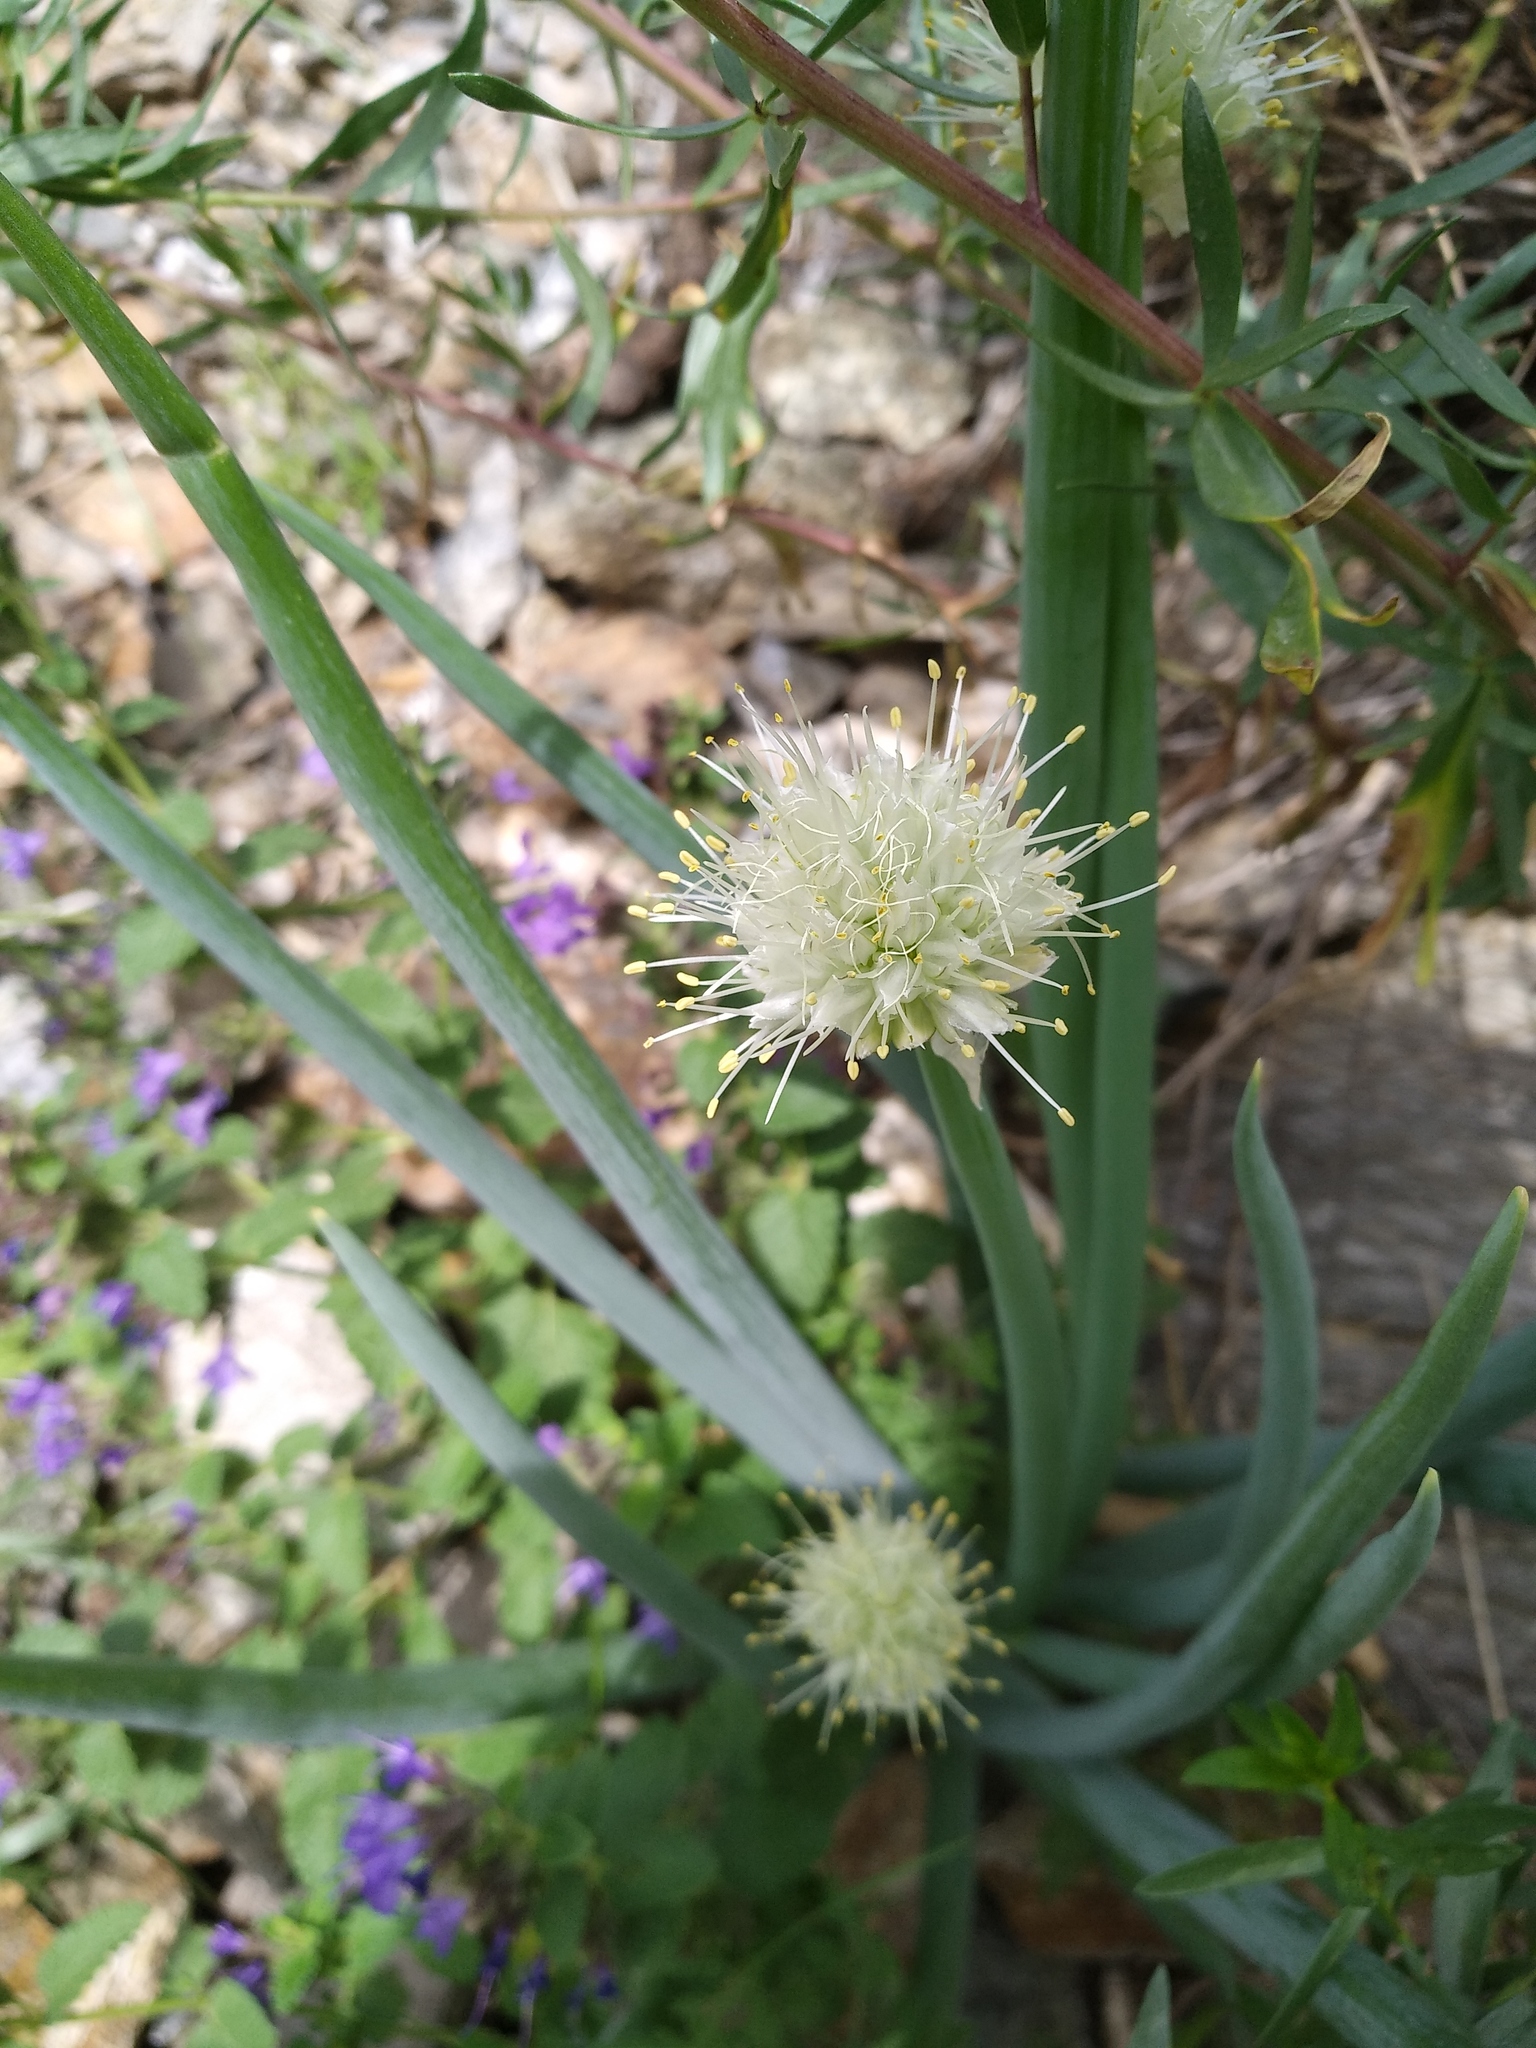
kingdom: Plantae
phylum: Tracheophyta
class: Liliopsida
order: Asparagales
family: Amaryllidaceae
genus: Allium
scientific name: Allium altaicum
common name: Altai onion
